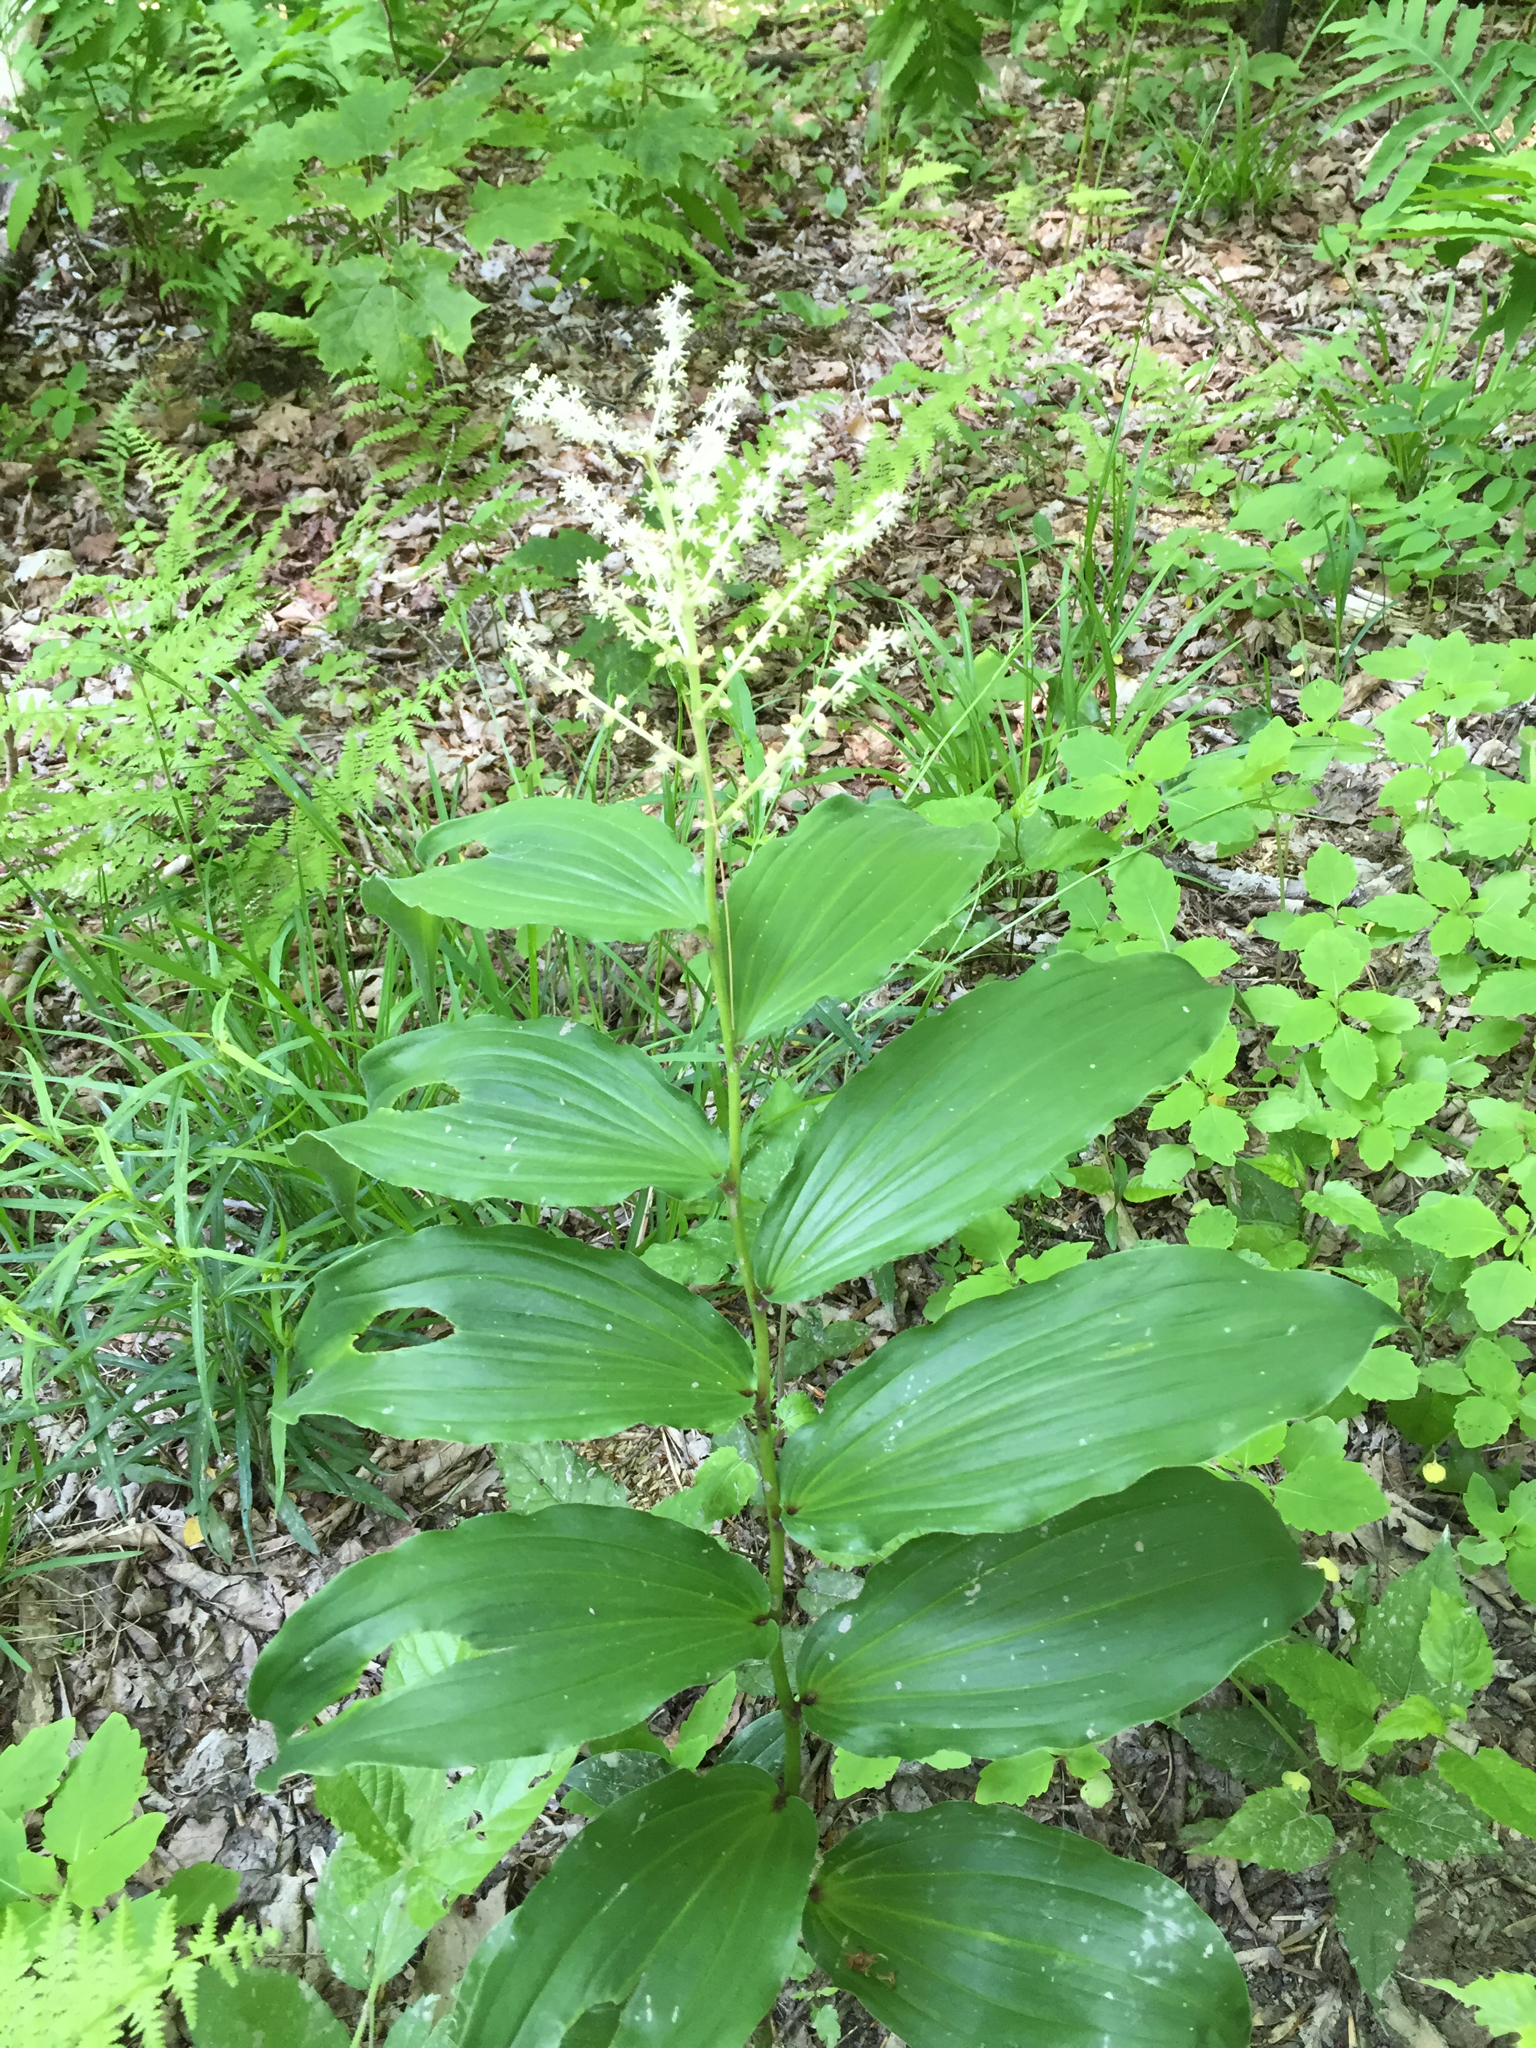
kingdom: Plantae
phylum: Tracheophyta
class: Liliopsida
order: Asparagales
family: Asparagaceae
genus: Maianthemum
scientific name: Maianthemum racemosum
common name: False spikenard
